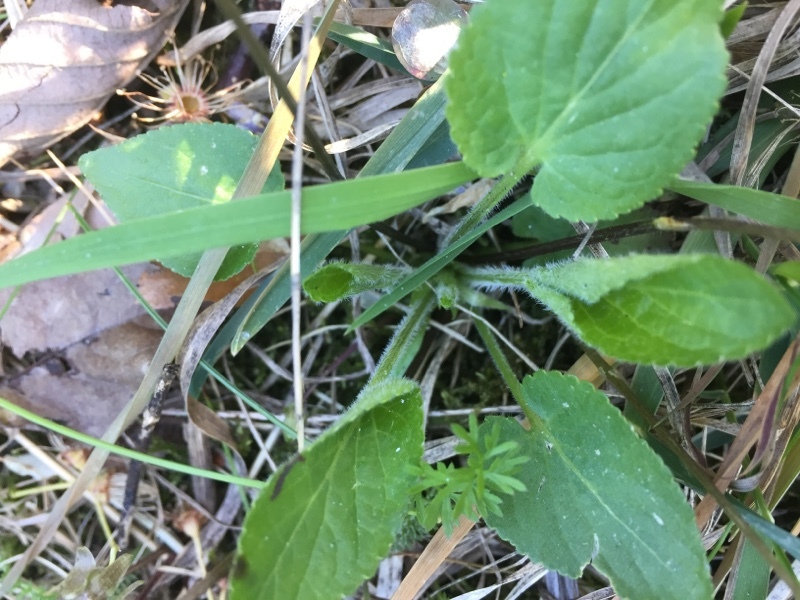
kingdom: Plantae
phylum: Tracheophyta
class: Magnoliopsida
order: Malpighiales
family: Violaceae
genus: Viola
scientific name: Viola hirta
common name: Hairy violet
